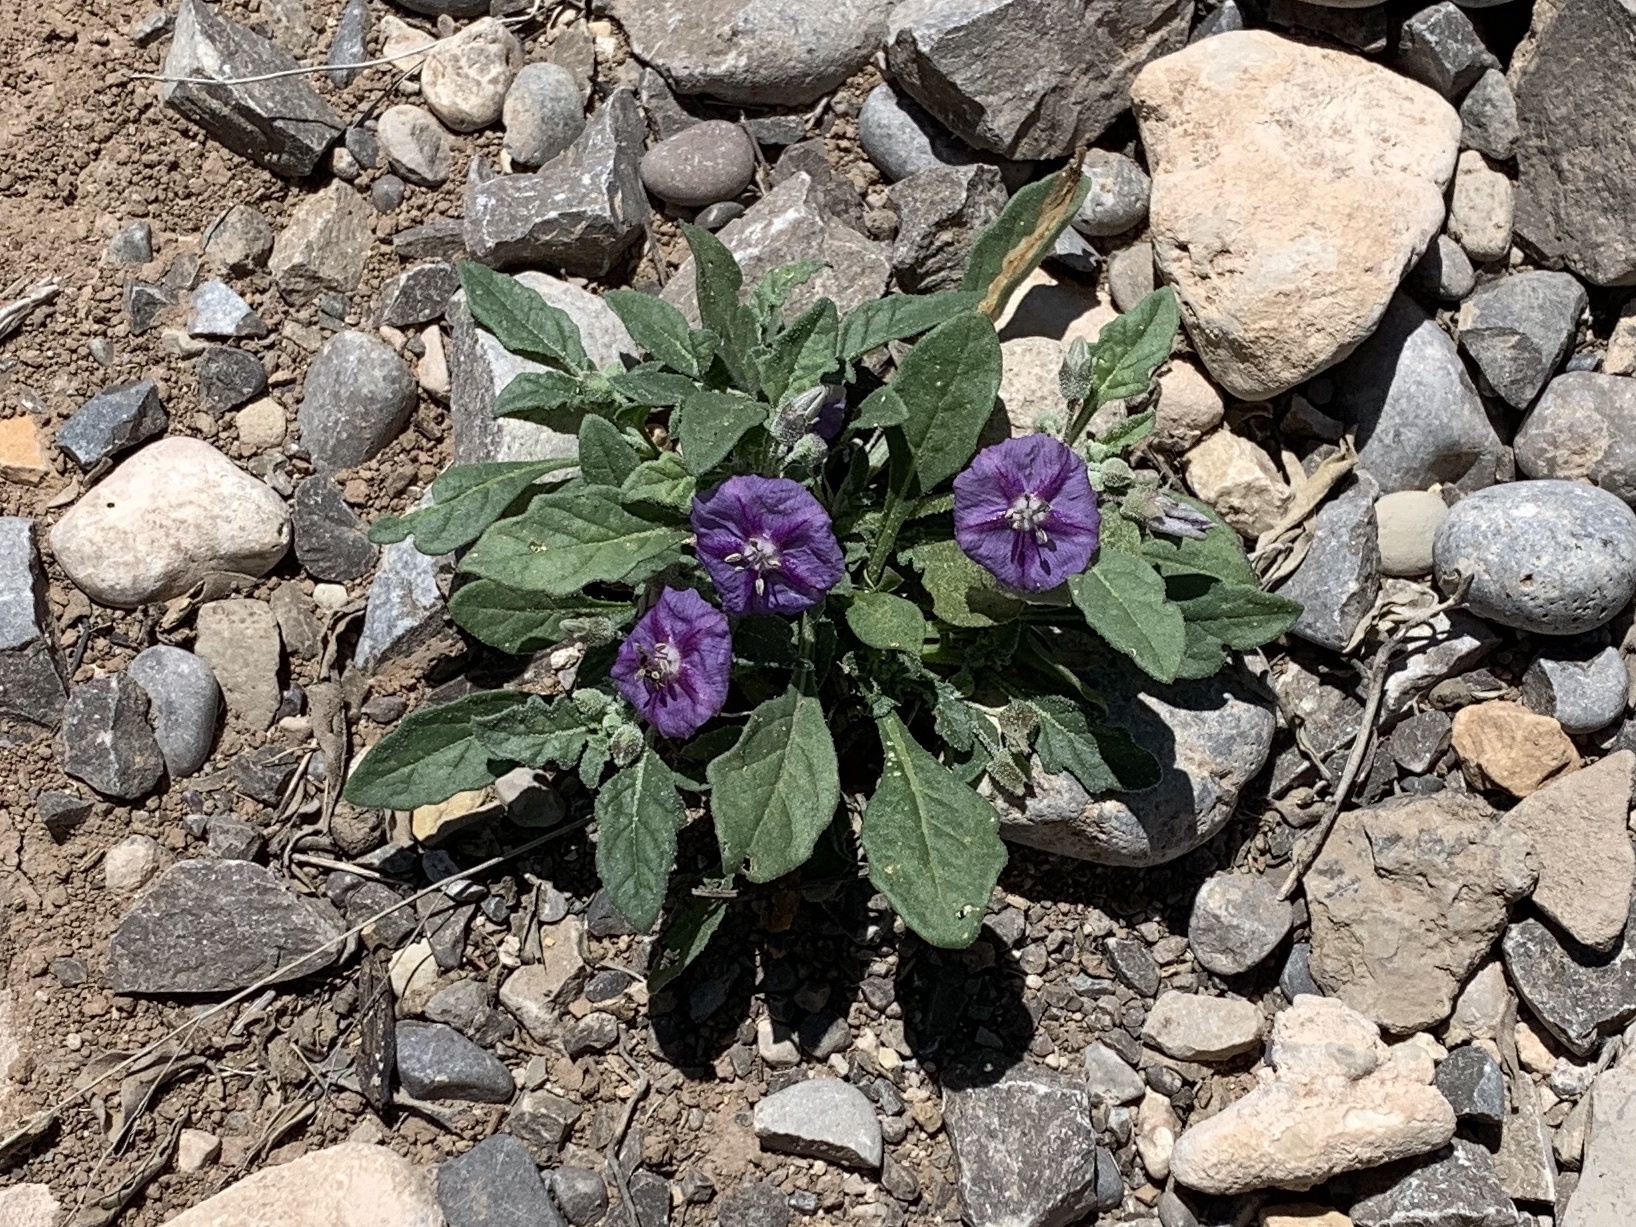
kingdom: Plantae
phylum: Tracheophyta
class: Magnoliopsida
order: Solanales
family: Solanaceae
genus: Quincula
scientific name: Quincula lobata
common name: Purple-ground-cherry
